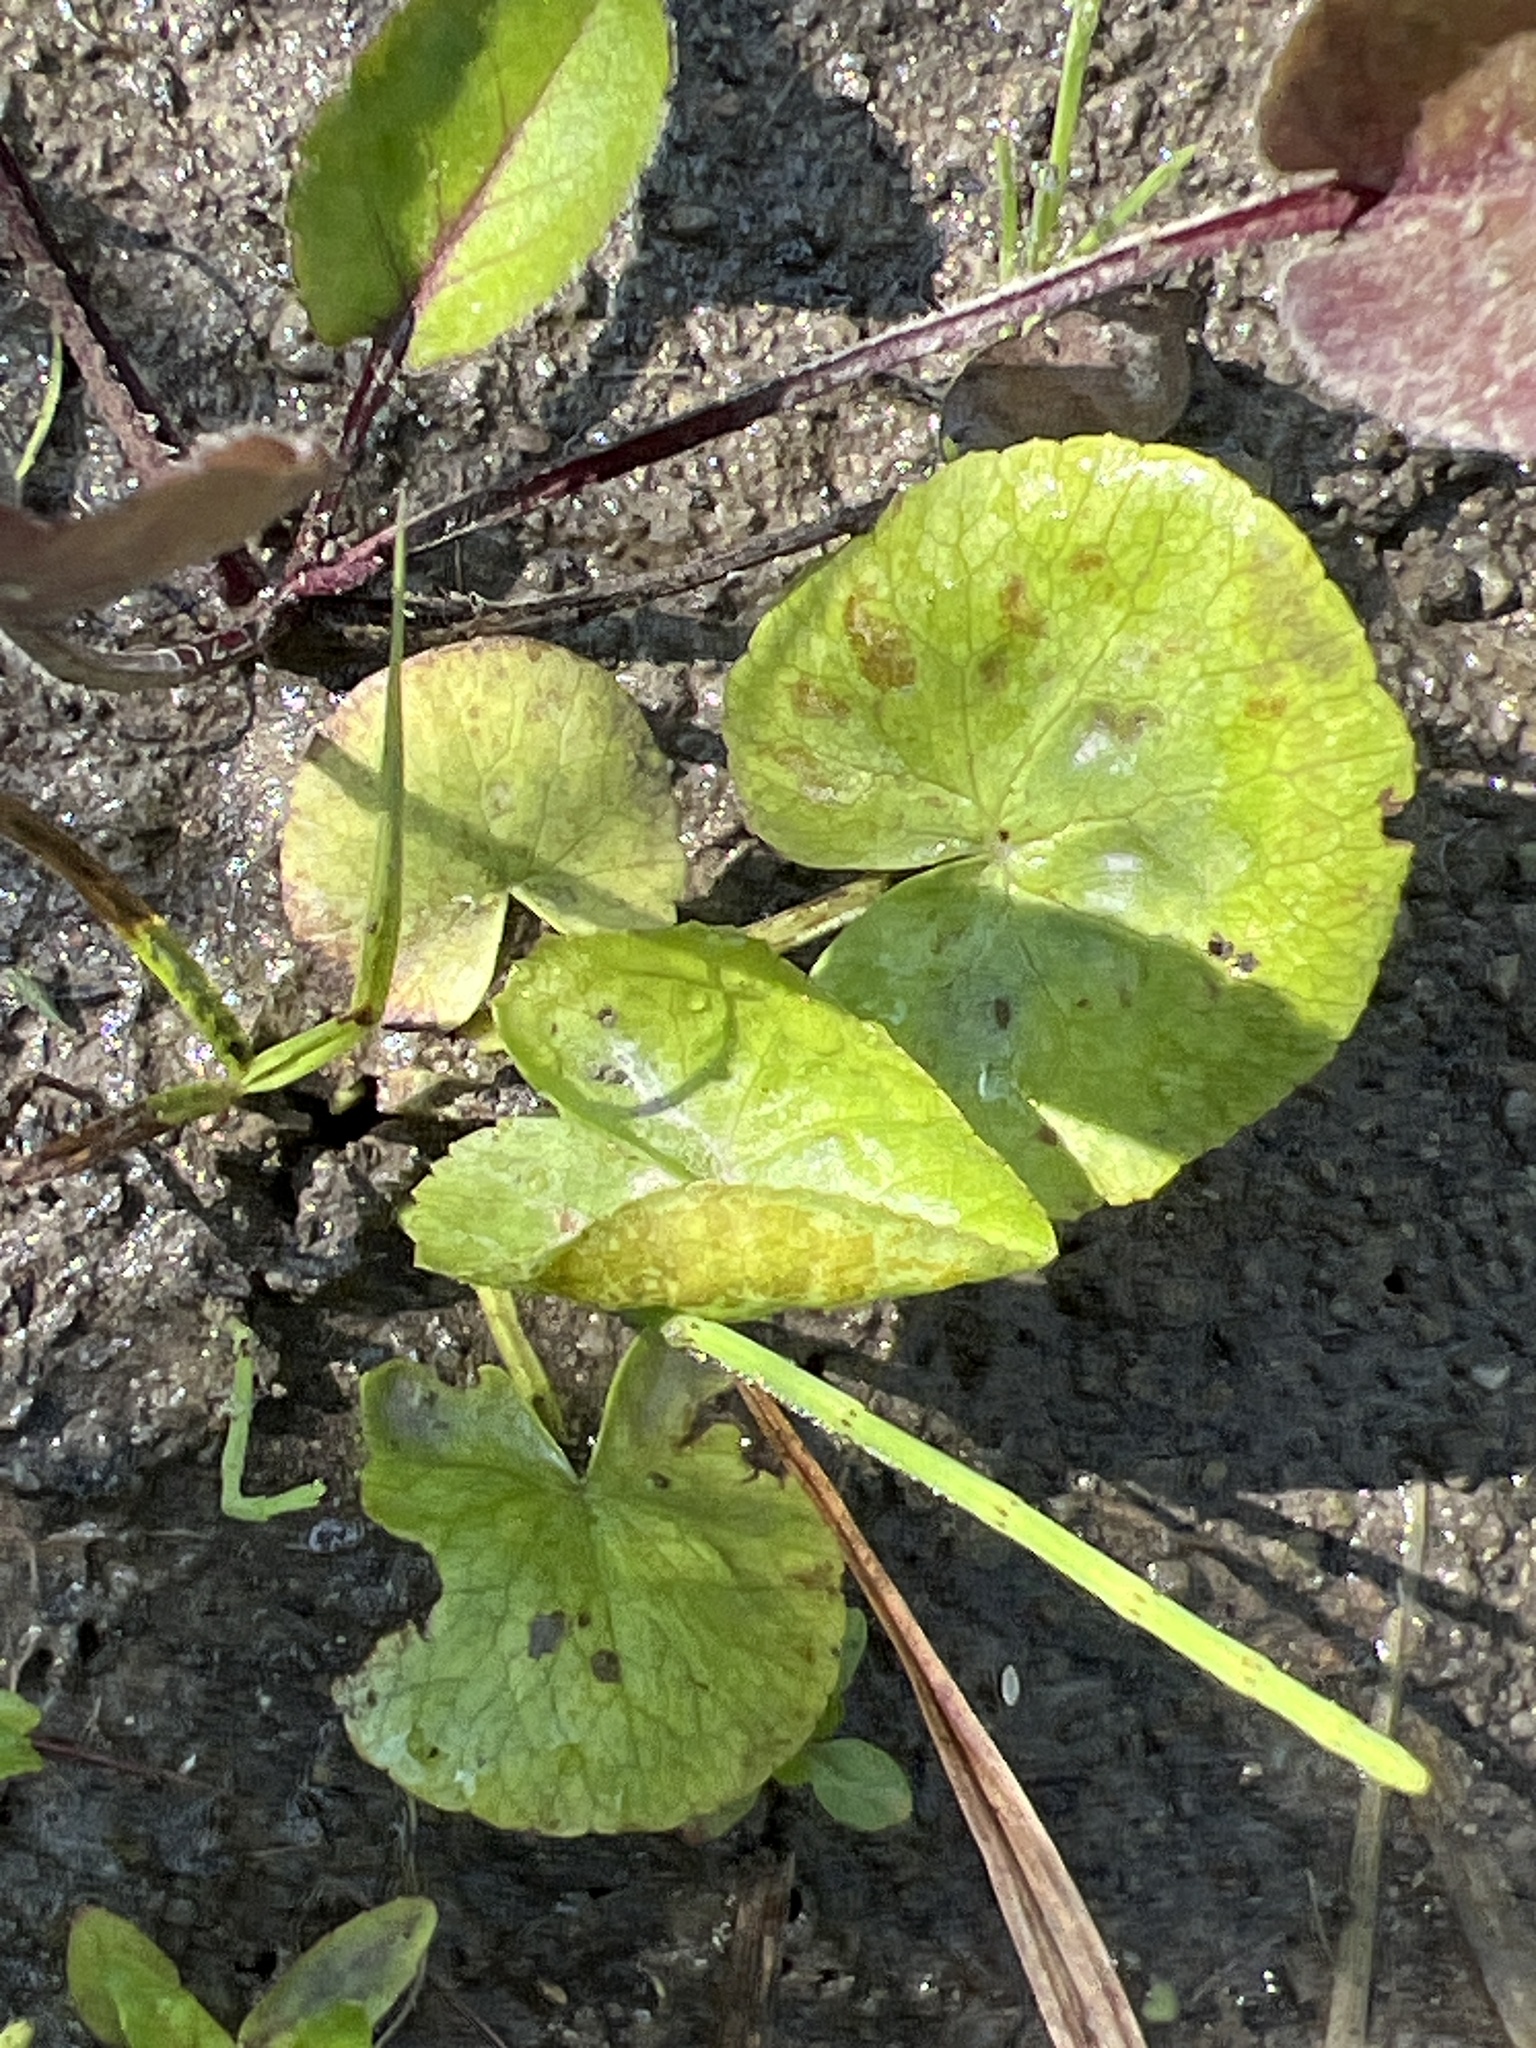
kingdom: Plantae
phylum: Tracheophyta
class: Magnoliopsida
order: Ranunculales
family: Ranunculaceae
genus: Caltha
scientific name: Caltha palustris
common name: Marsh marigold
